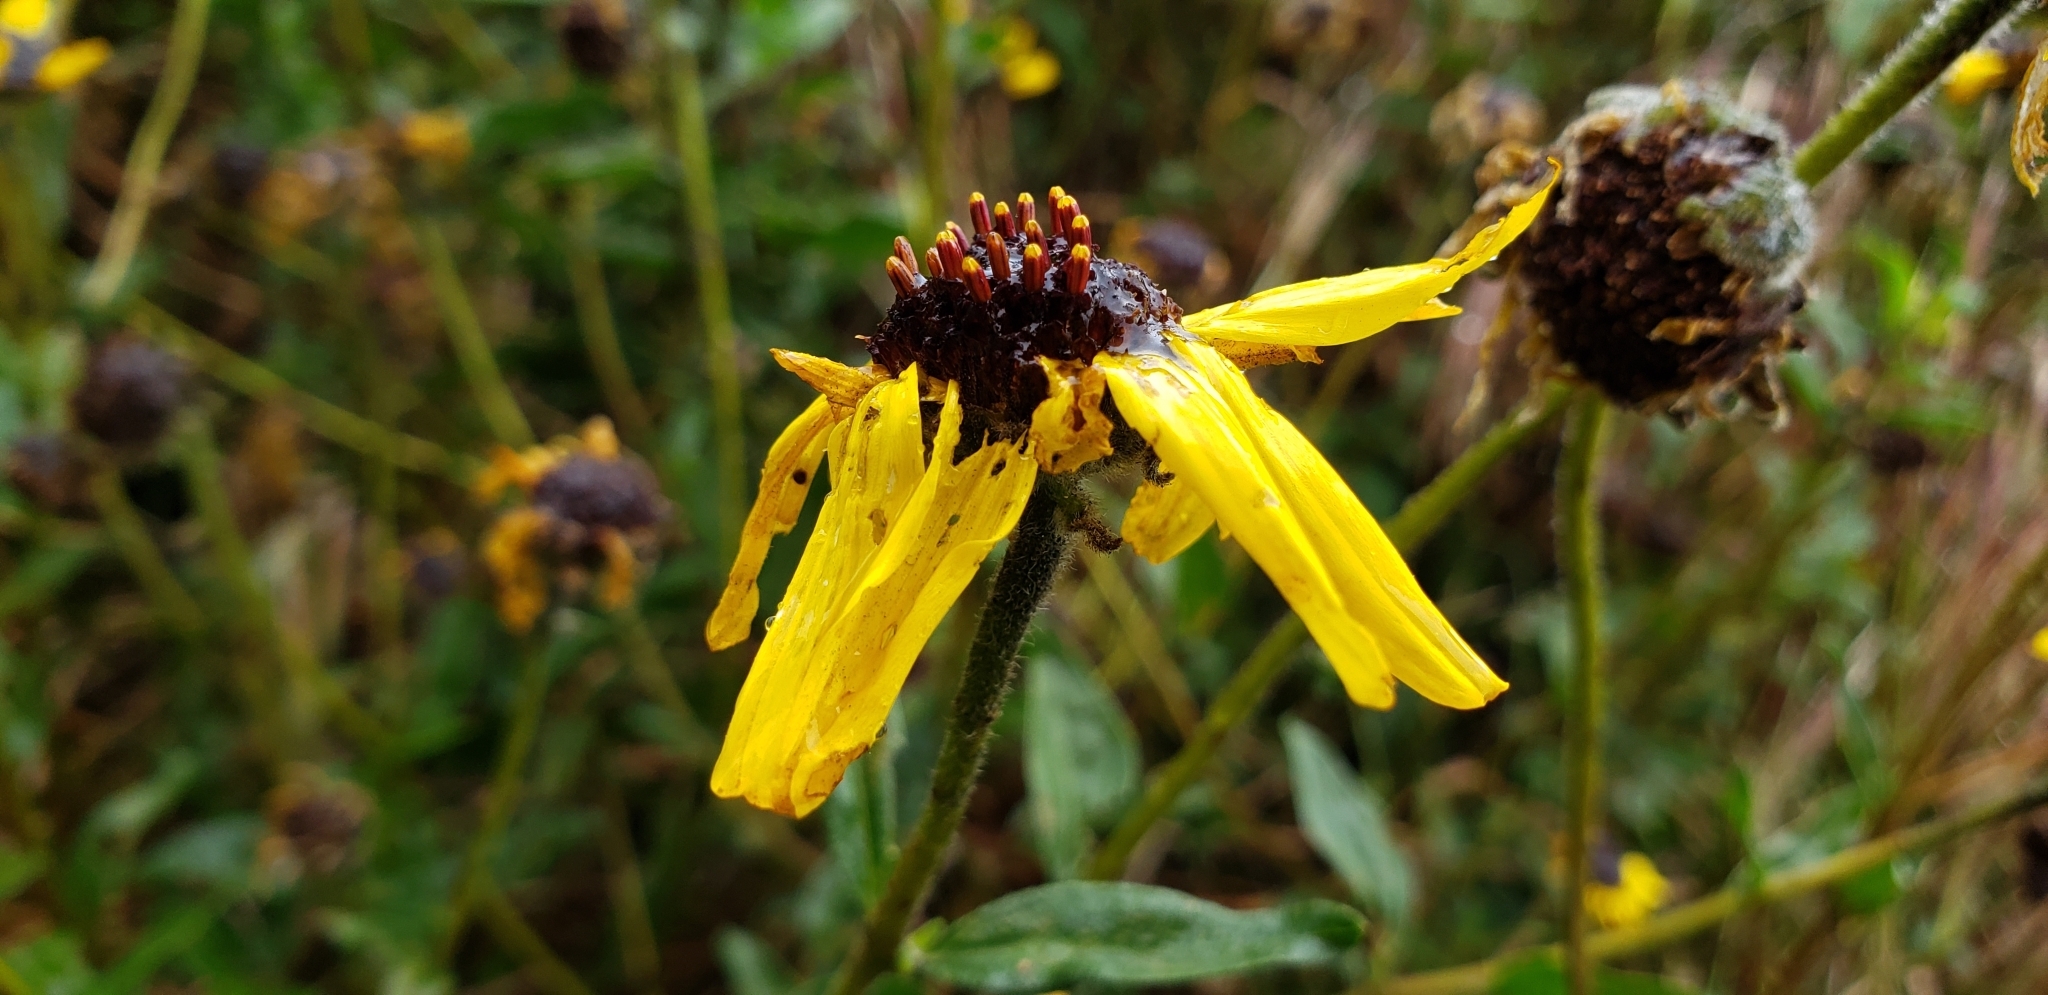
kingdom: Plantae
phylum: Tracheophyta
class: Magnoliopsida
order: Asterales
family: Asteraceae
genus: Encelia
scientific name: Encelia californica
